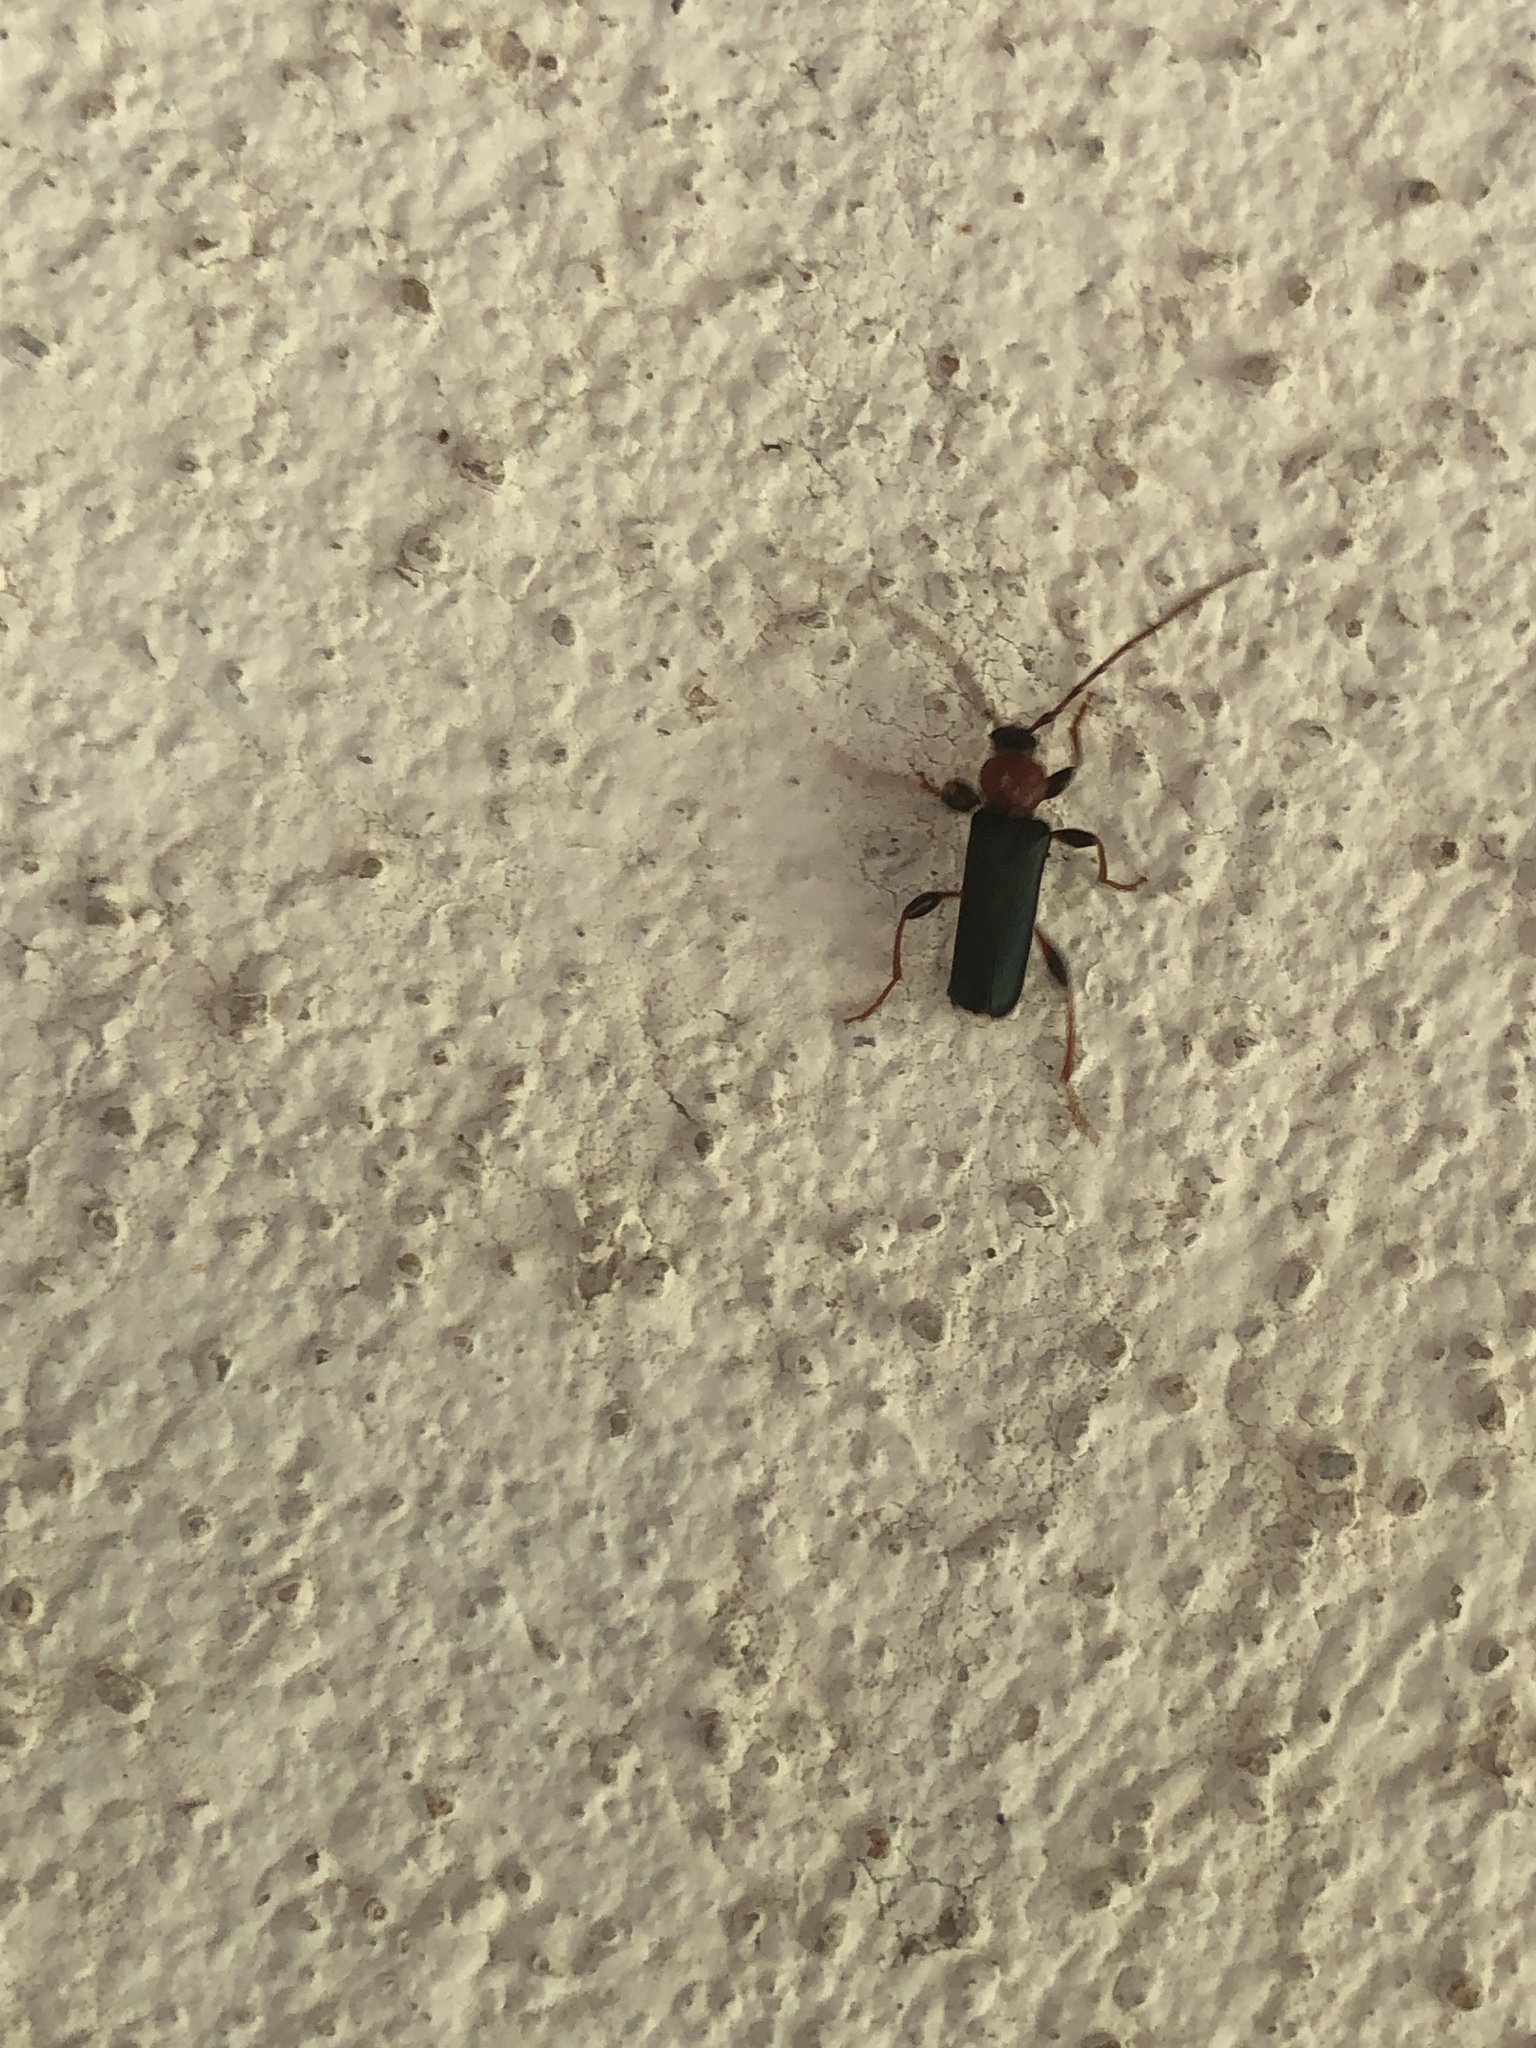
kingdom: Animalia
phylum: Arthropoda
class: Insecta
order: Coleoptera
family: Cerambycidae
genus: Phymatodes
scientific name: Phymatodes testaceus
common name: Long-horned beetle
